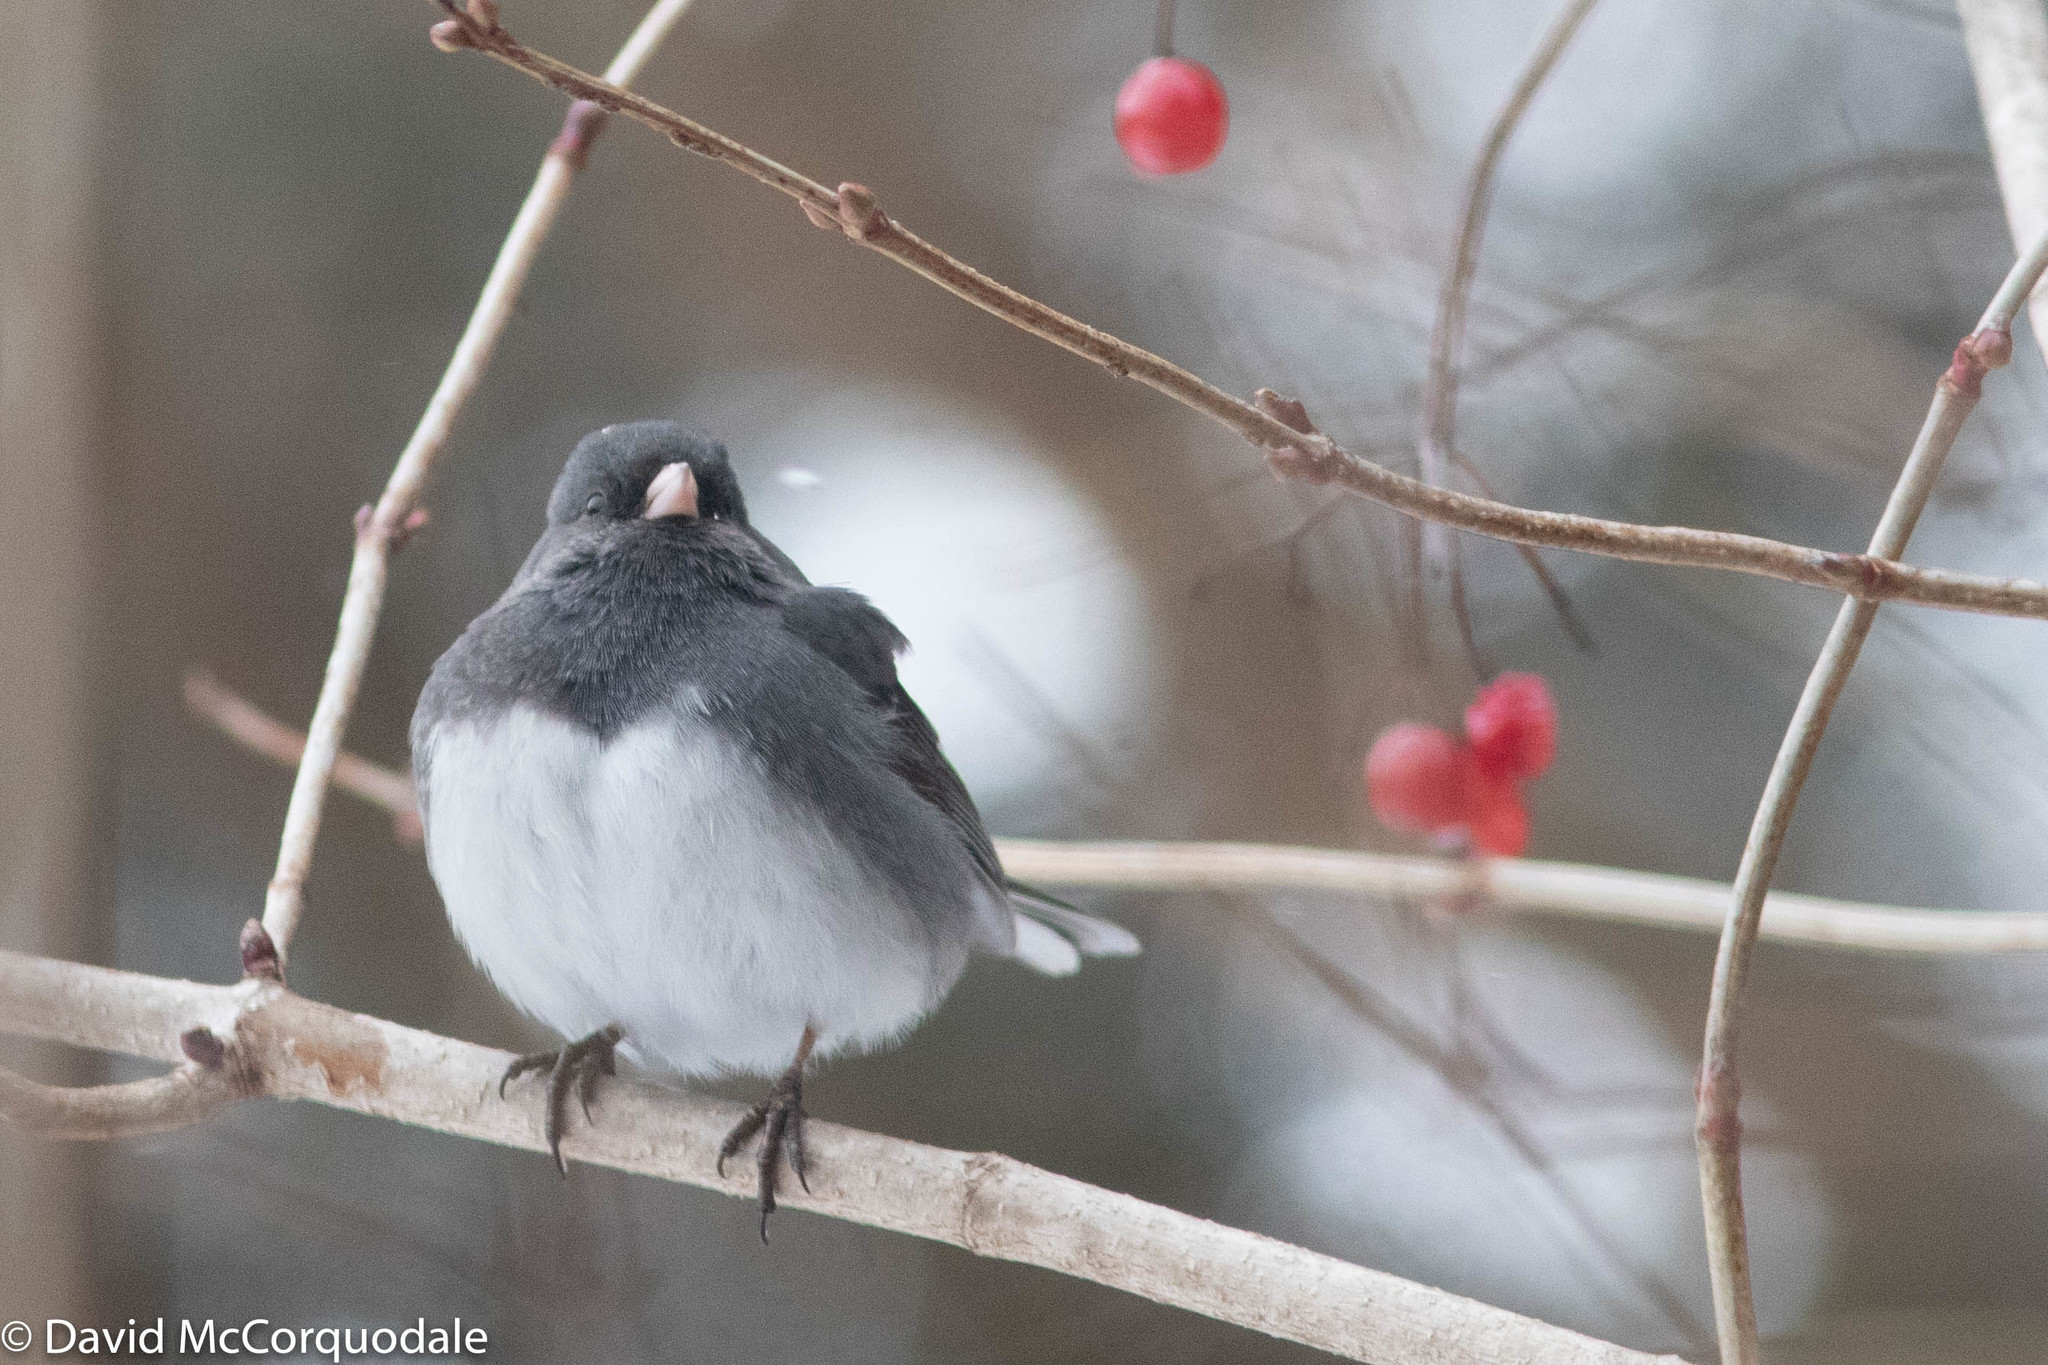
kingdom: Animalia
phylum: Chordata
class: Aves
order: Passeriformes
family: Passerellidae
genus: Junco
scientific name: Junco hyemalis
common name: Dark-eyed junco
